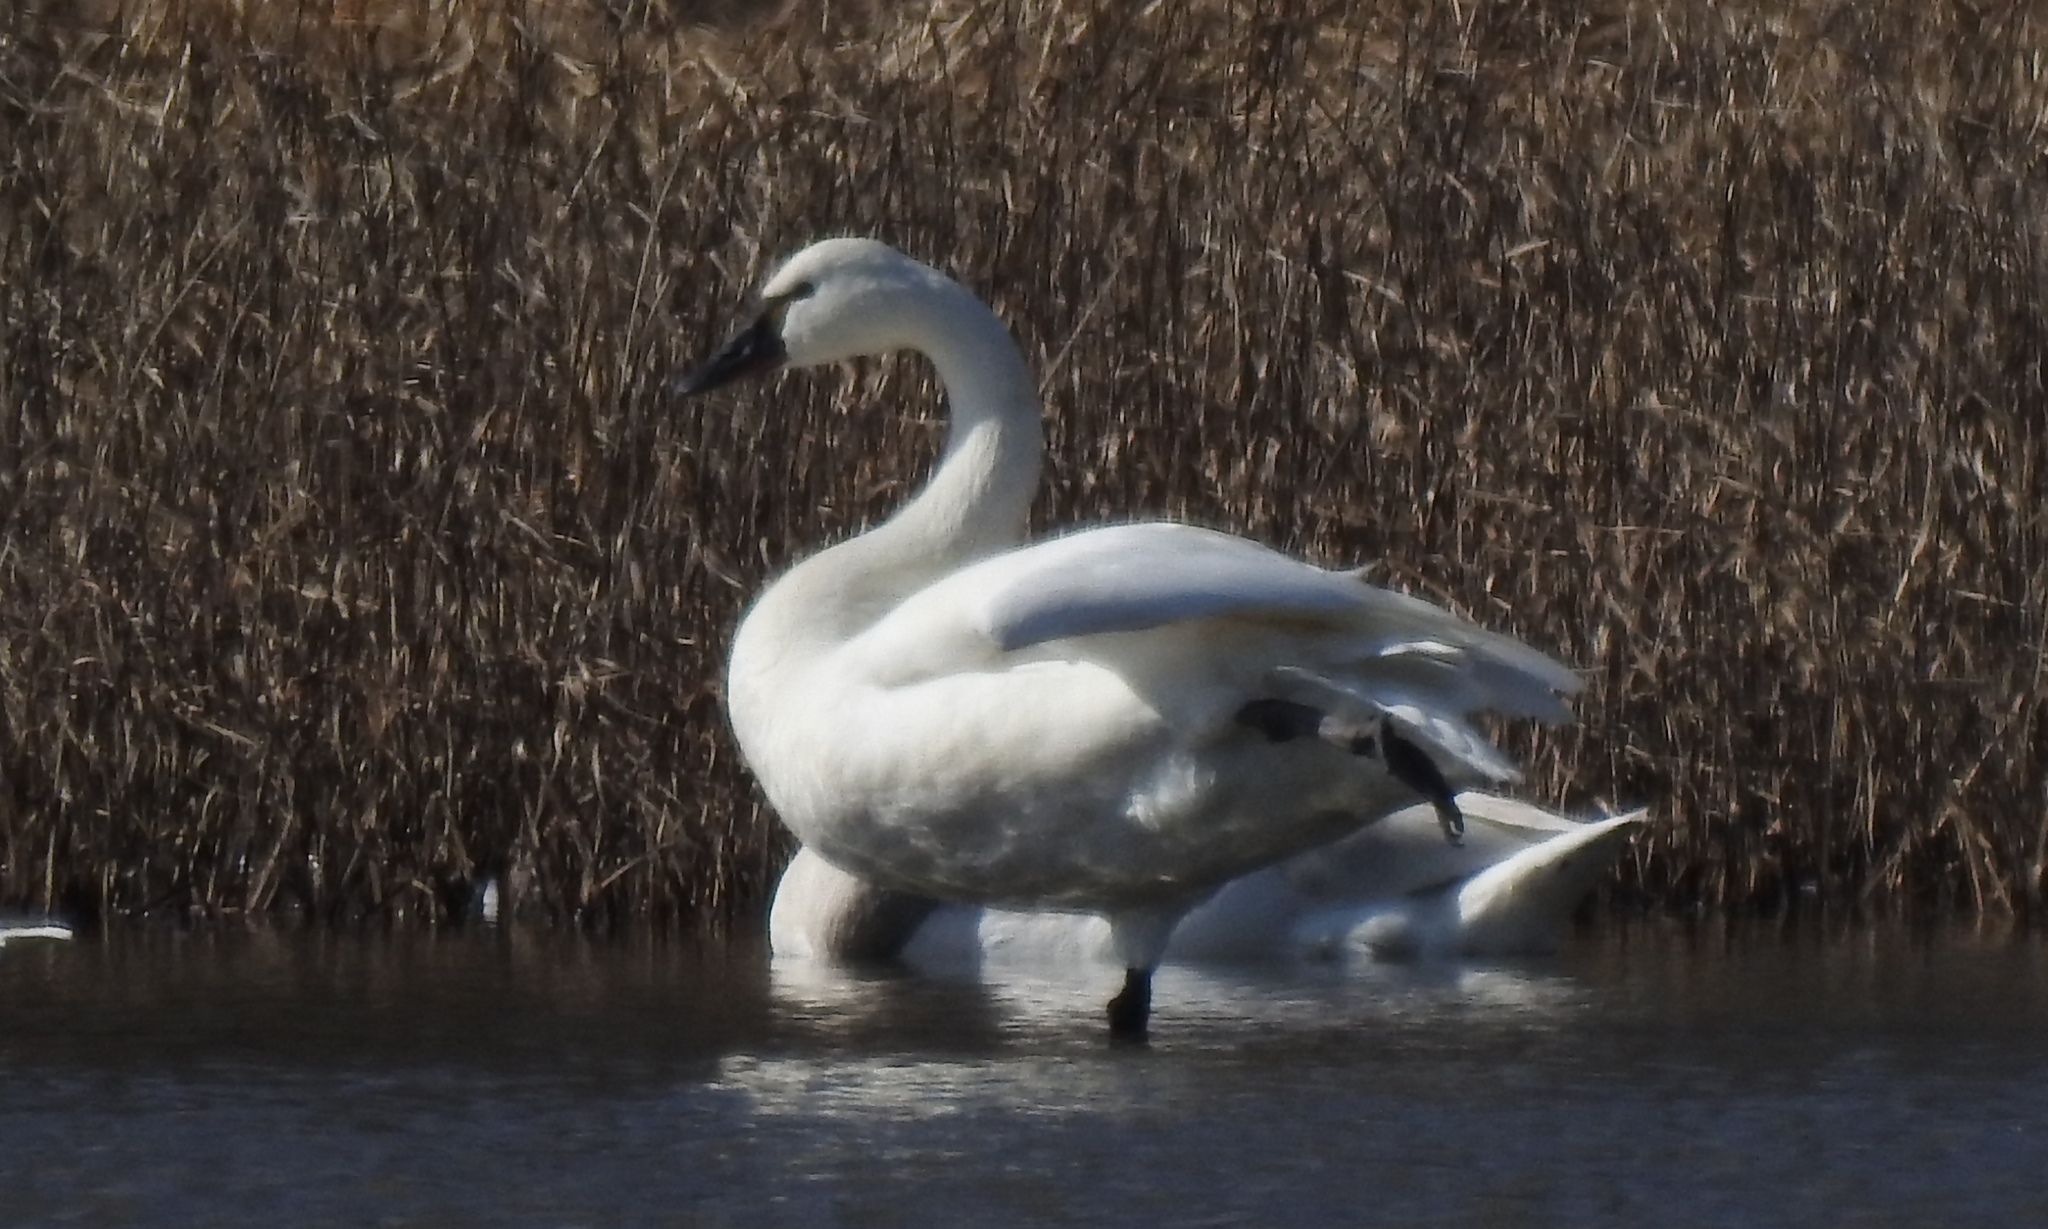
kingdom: Animalia
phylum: Chordata
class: Aves
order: Anseriformes
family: Anatidae
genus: Cygnus
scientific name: Cygnus columbianus
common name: Tundra swan
